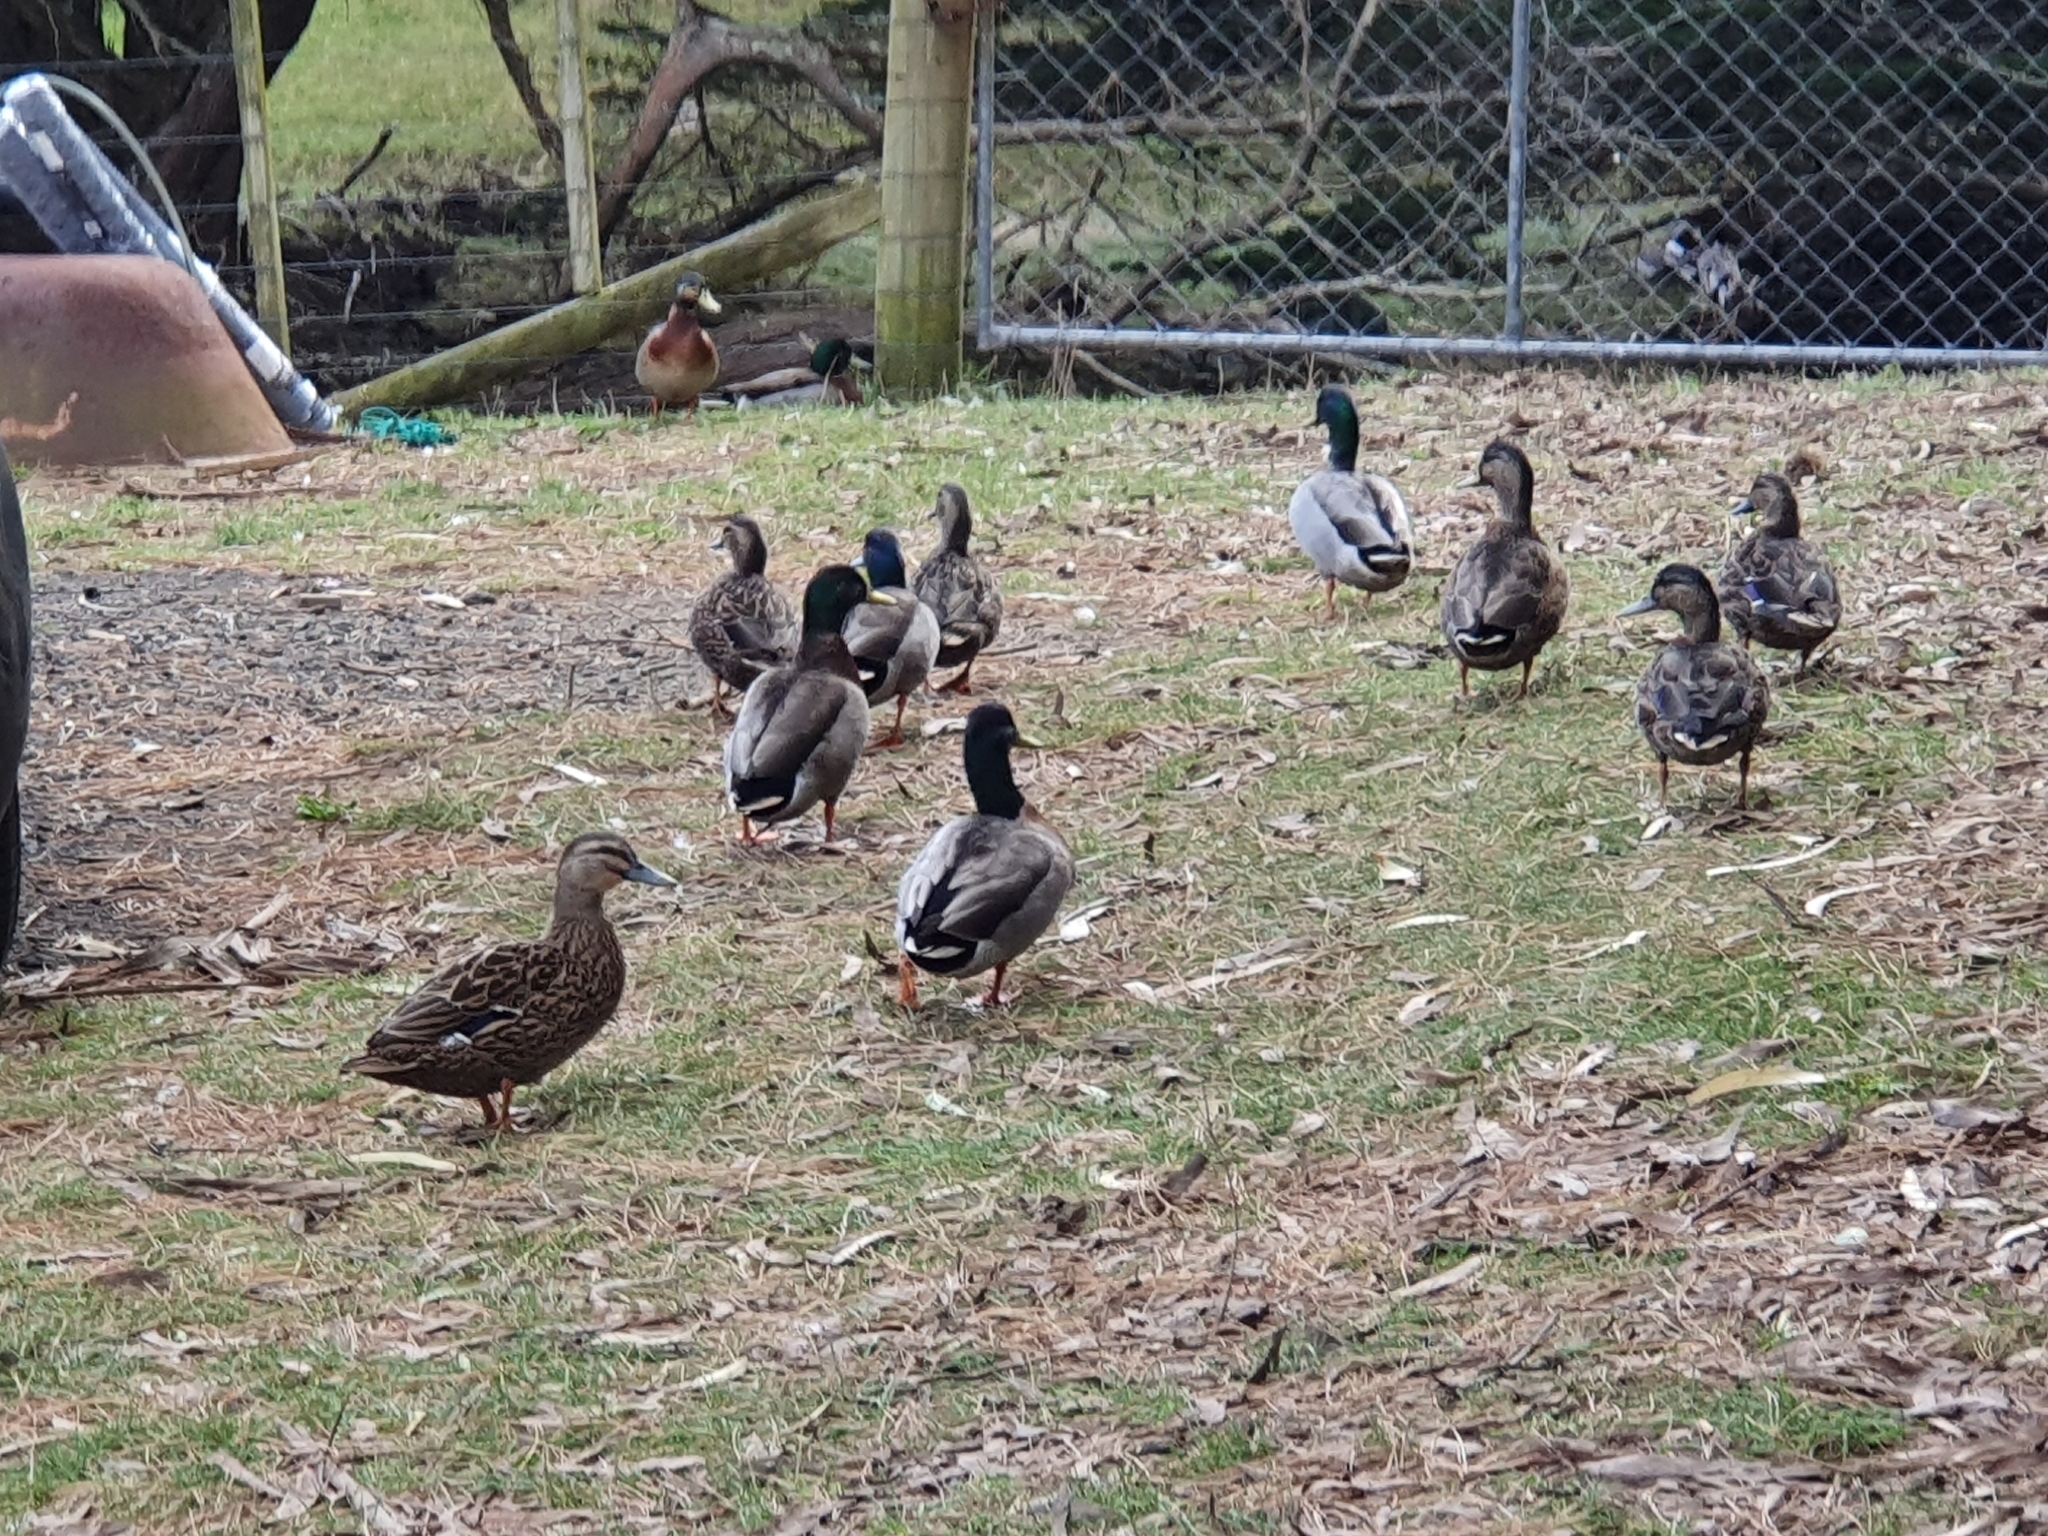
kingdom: Animalia
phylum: Chordata
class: Aves
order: Anseriformes
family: Anatidae
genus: Anas
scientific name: Anas platyrhynchos
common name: Mallard
